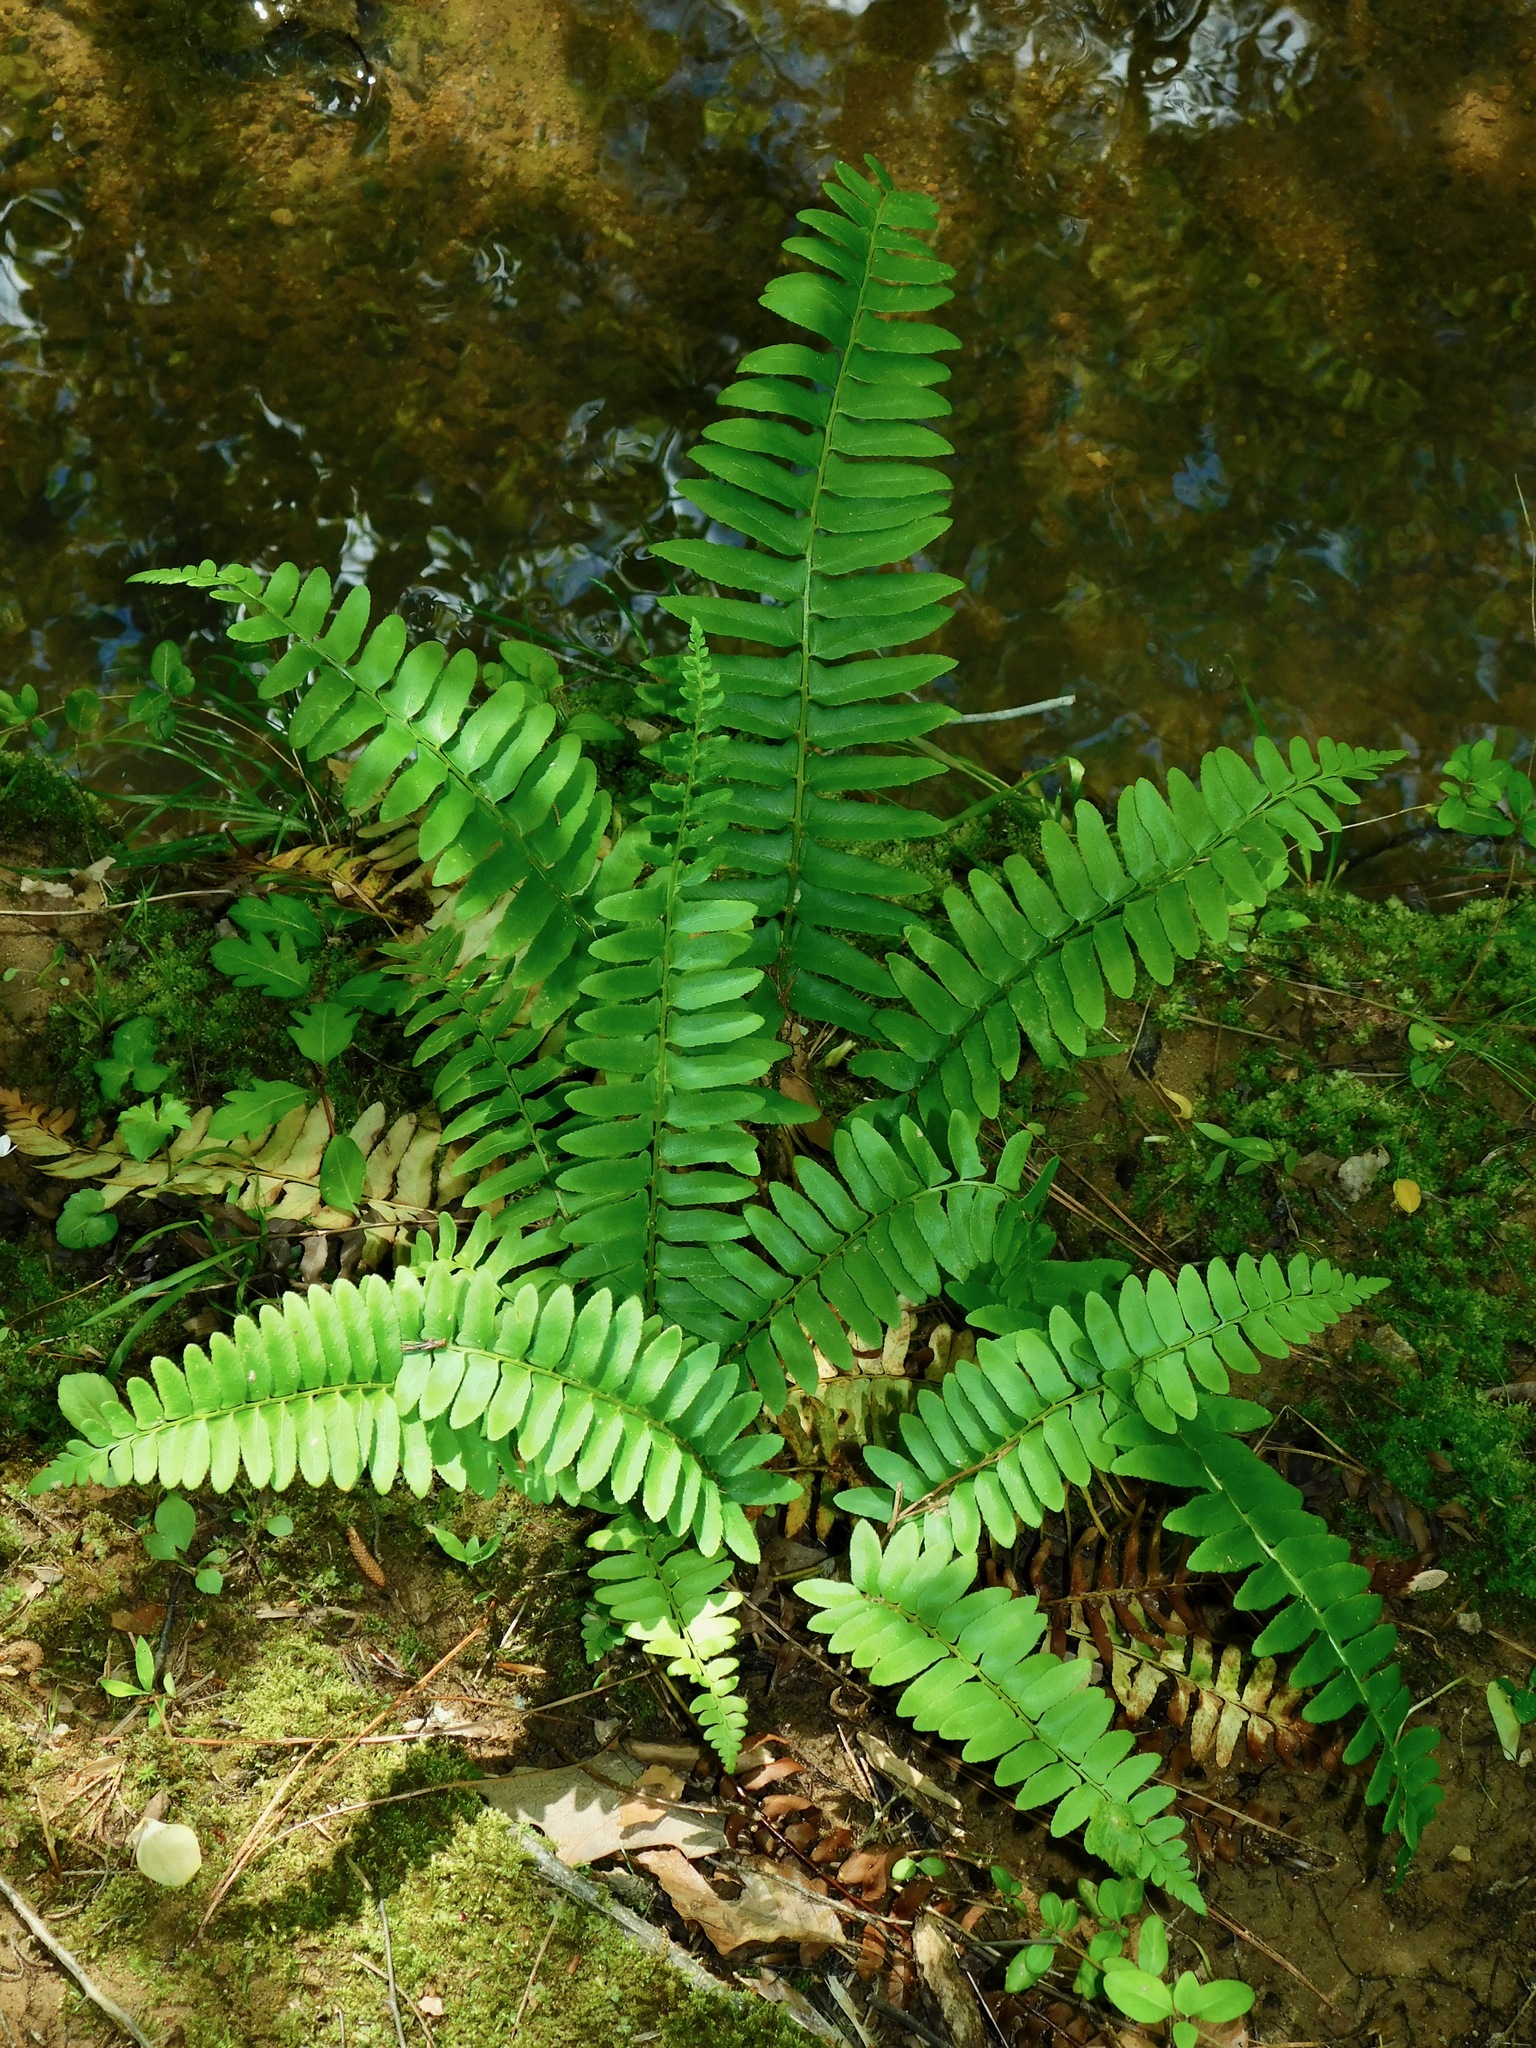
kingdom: Plantae
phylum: Tracheophyta
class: Polypodiopsida
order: Polypodiales
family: Dryopteridaceae
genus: Polystichum
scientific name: Polystichum acrostichoides
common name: Christmas fern
